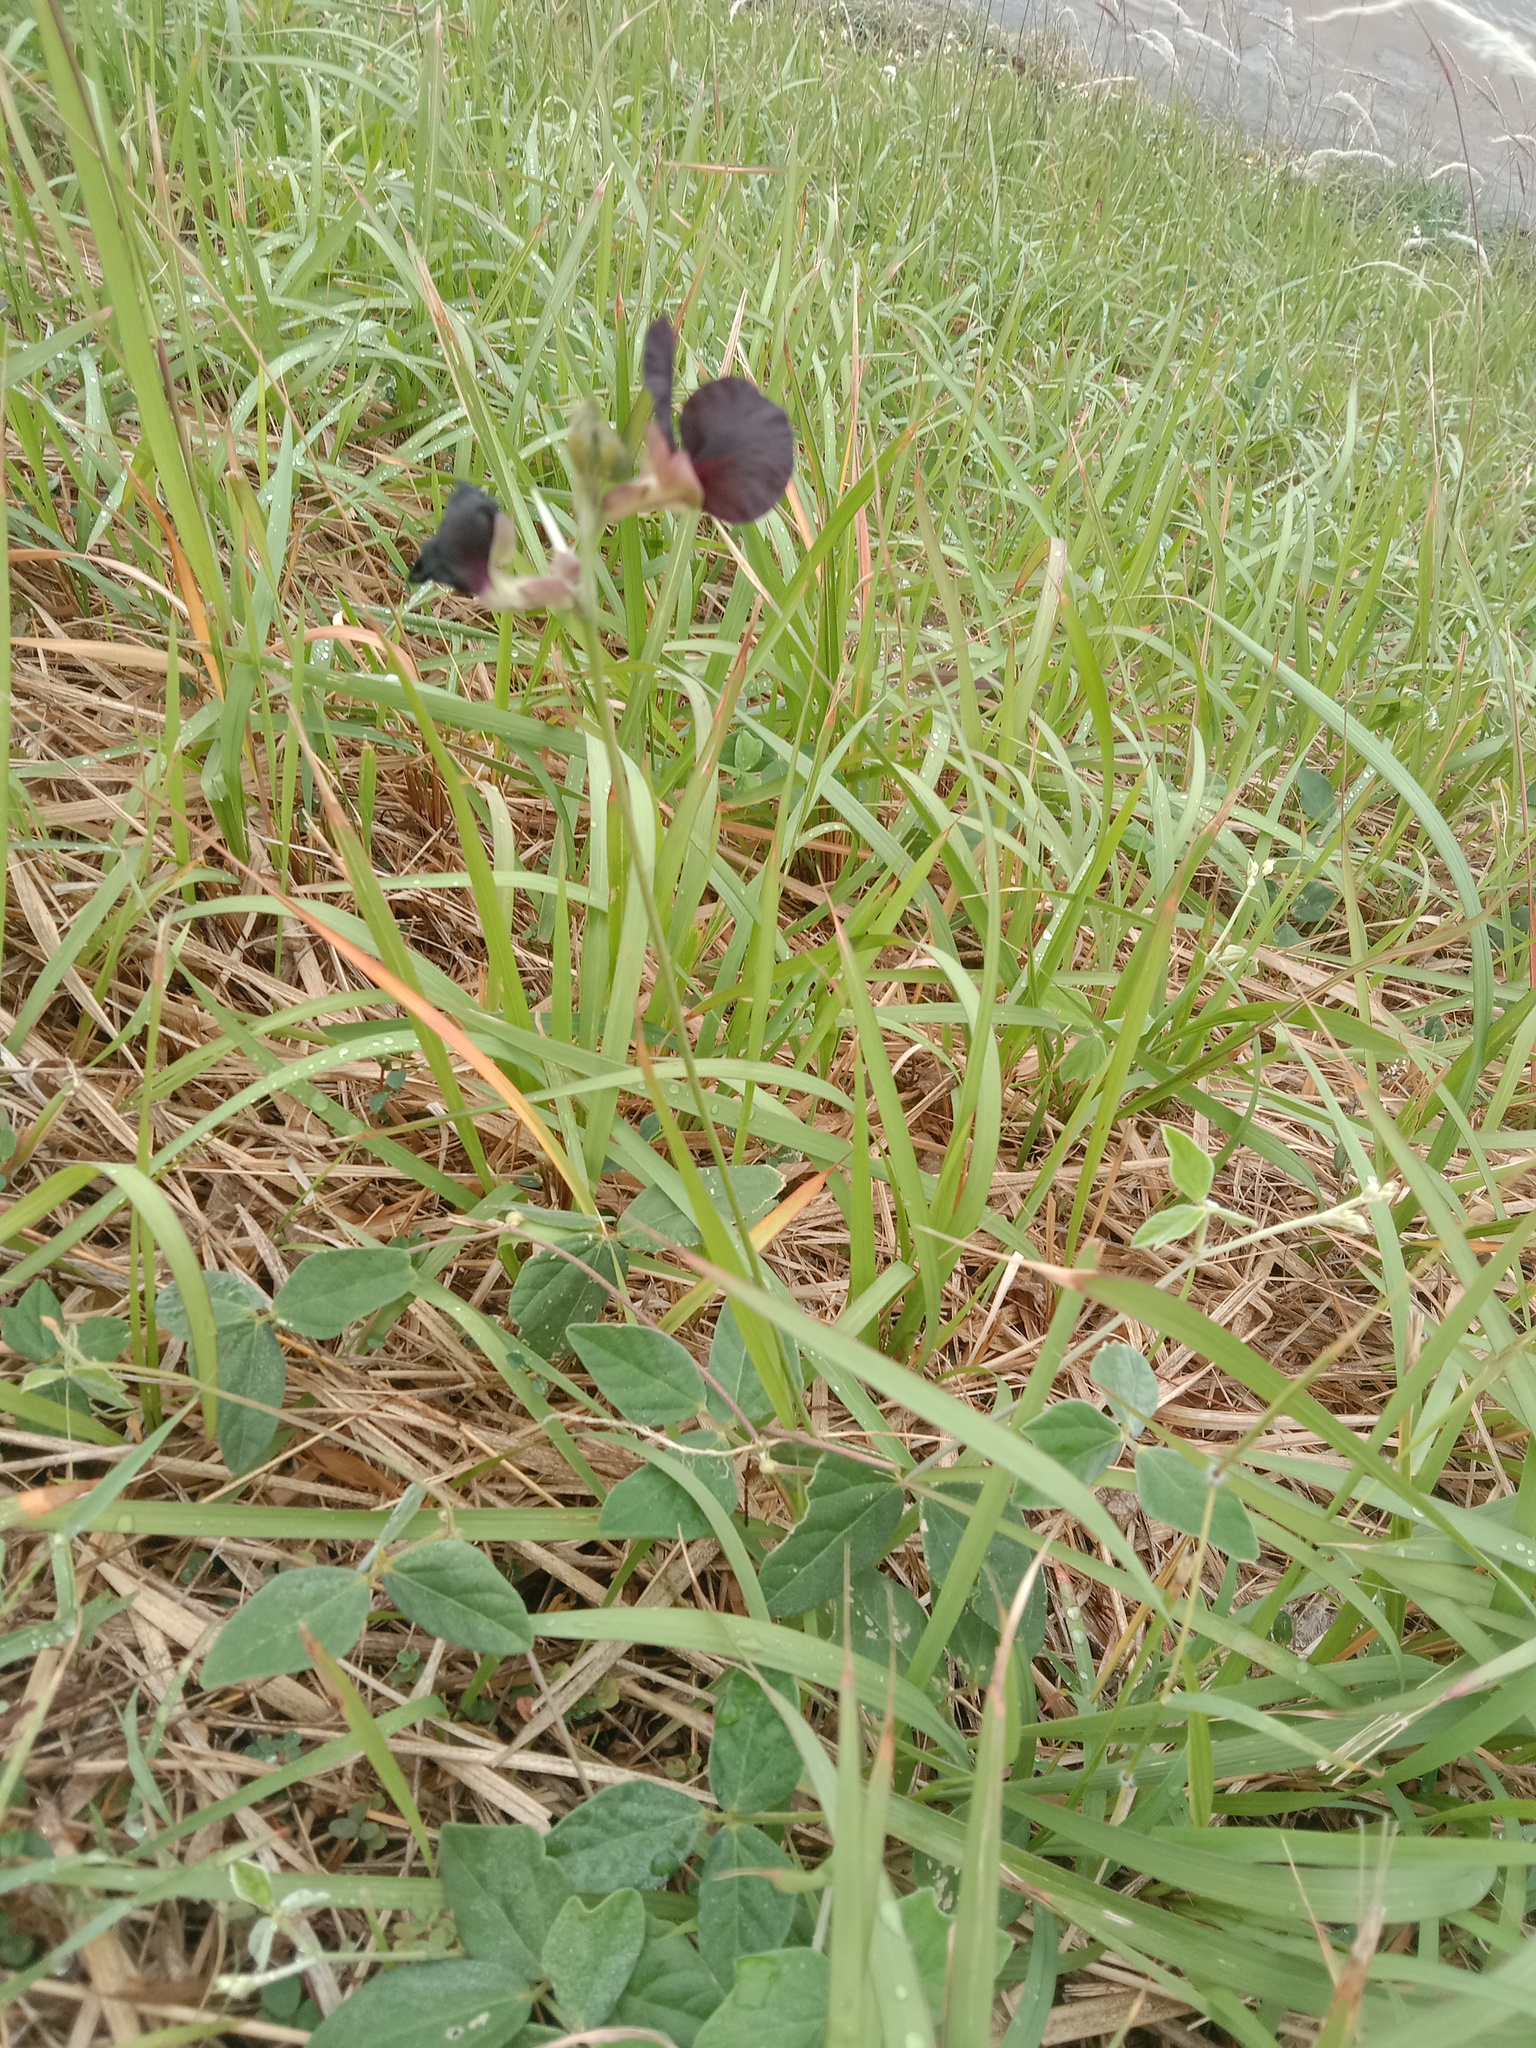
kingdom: Plantae
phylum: Tracheophyta
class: Magnoliopsida
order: Fabales
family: Fabaceae
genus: Macroptilium
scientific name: Macroptilium atropurpureum
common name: Purple bushbean
